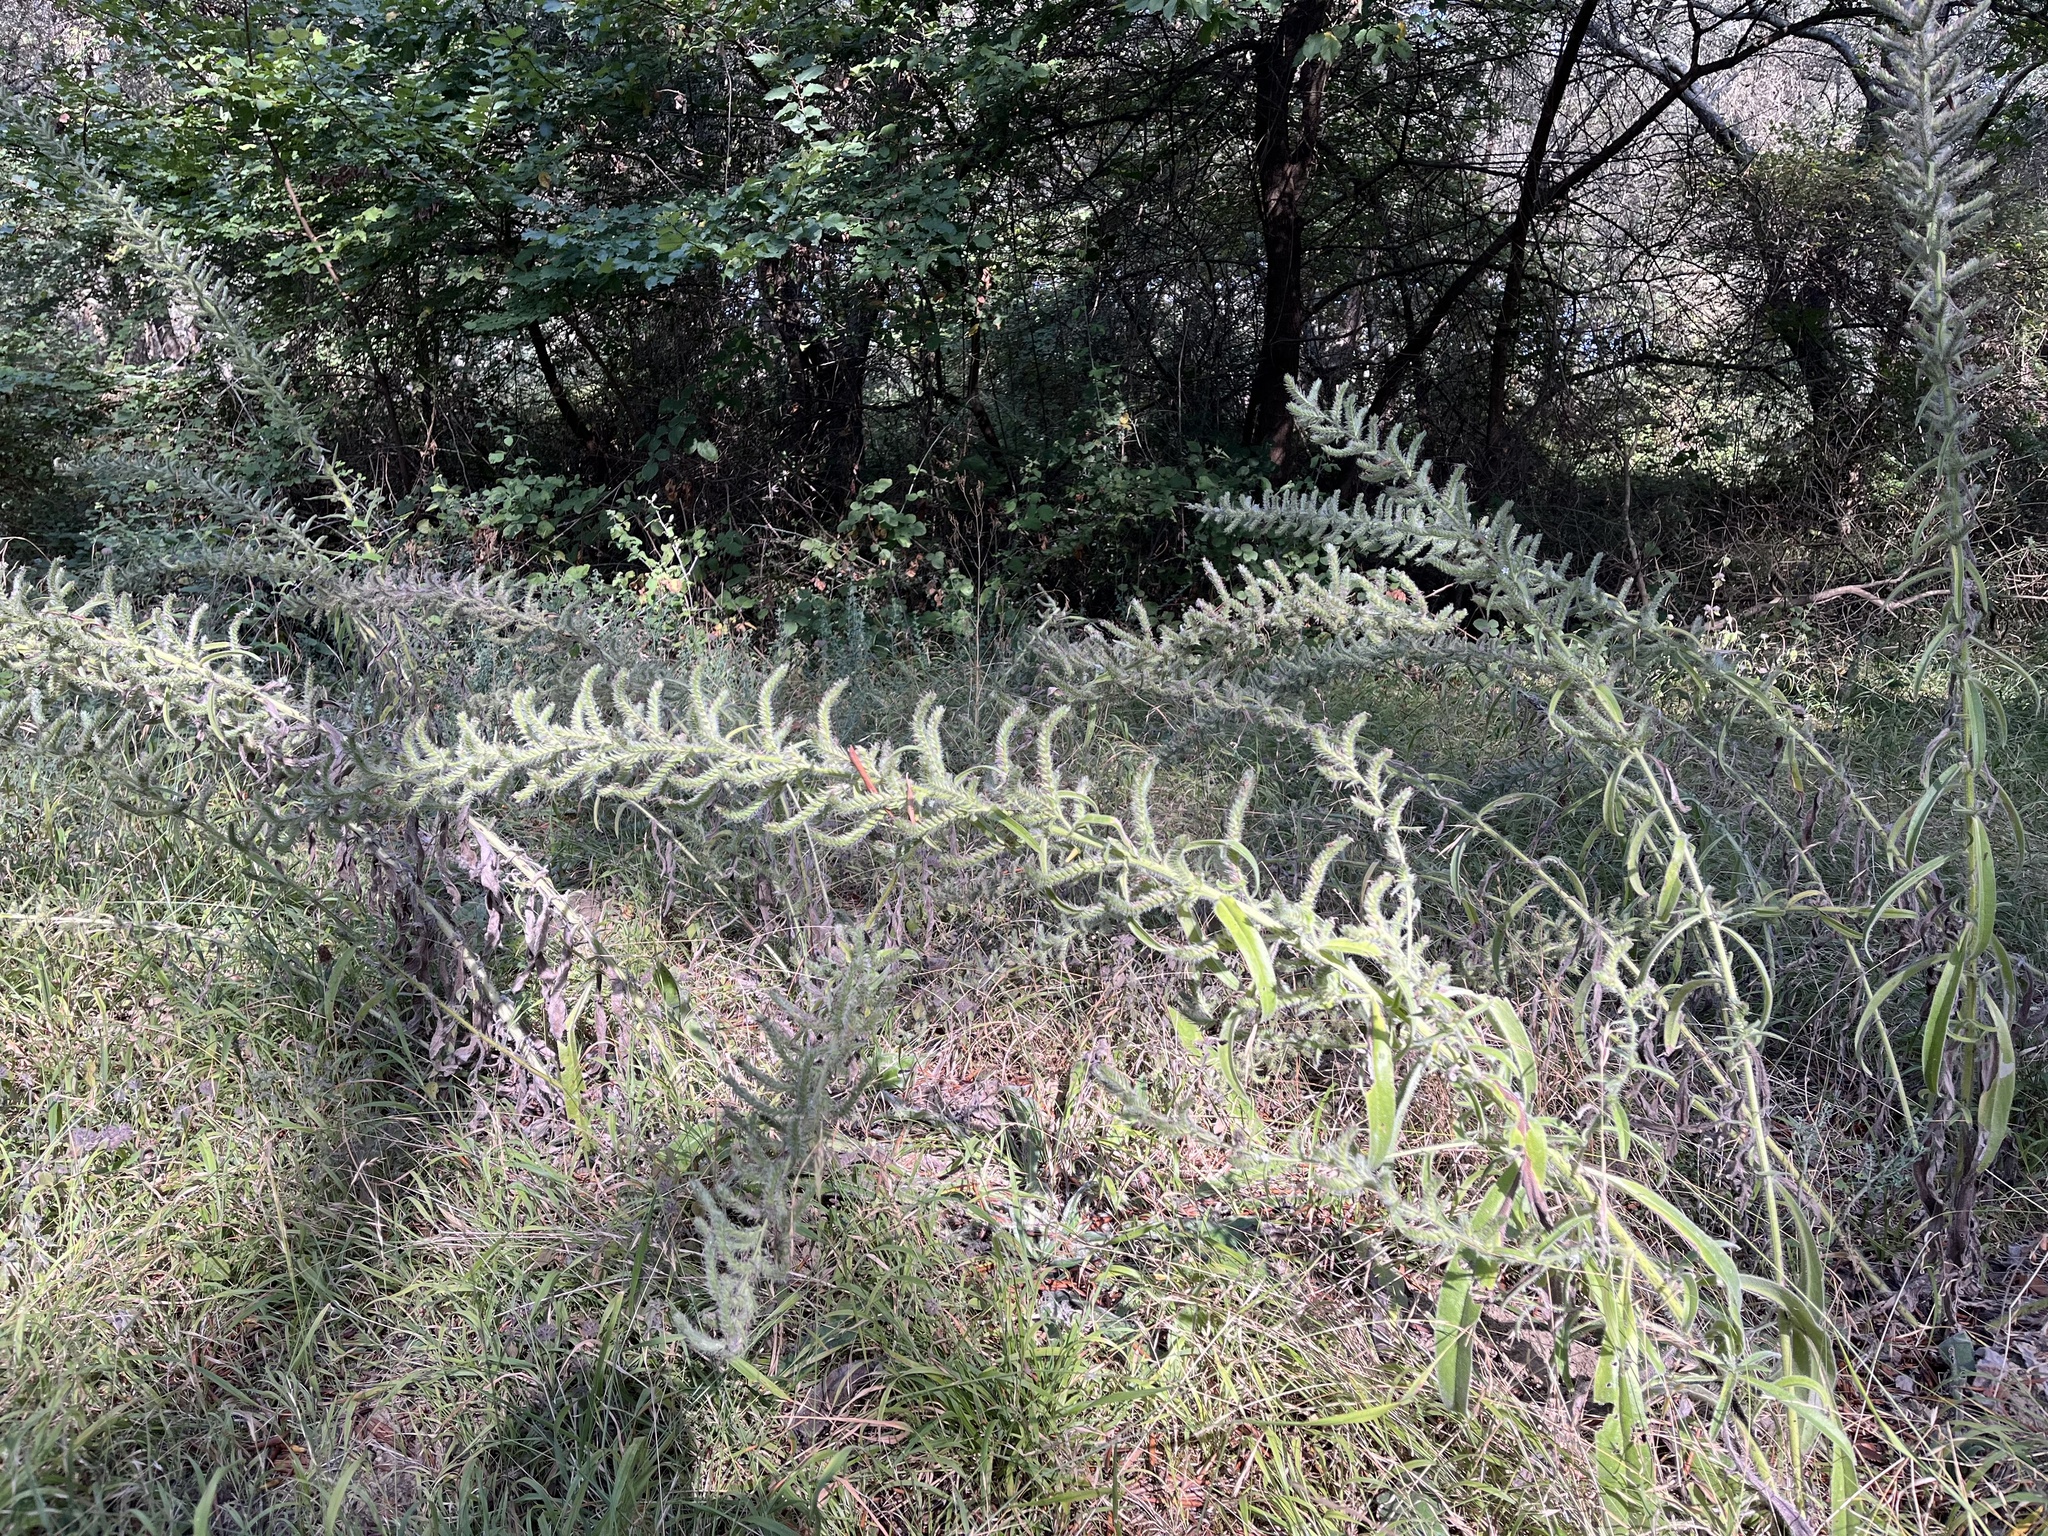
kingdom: Plantae
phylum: Tracheophyta
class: Magnoliopsida
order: Boraginales
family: Boraginaceae
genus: Echium
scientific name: Echium italicum
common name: Italian viper's bugloss
